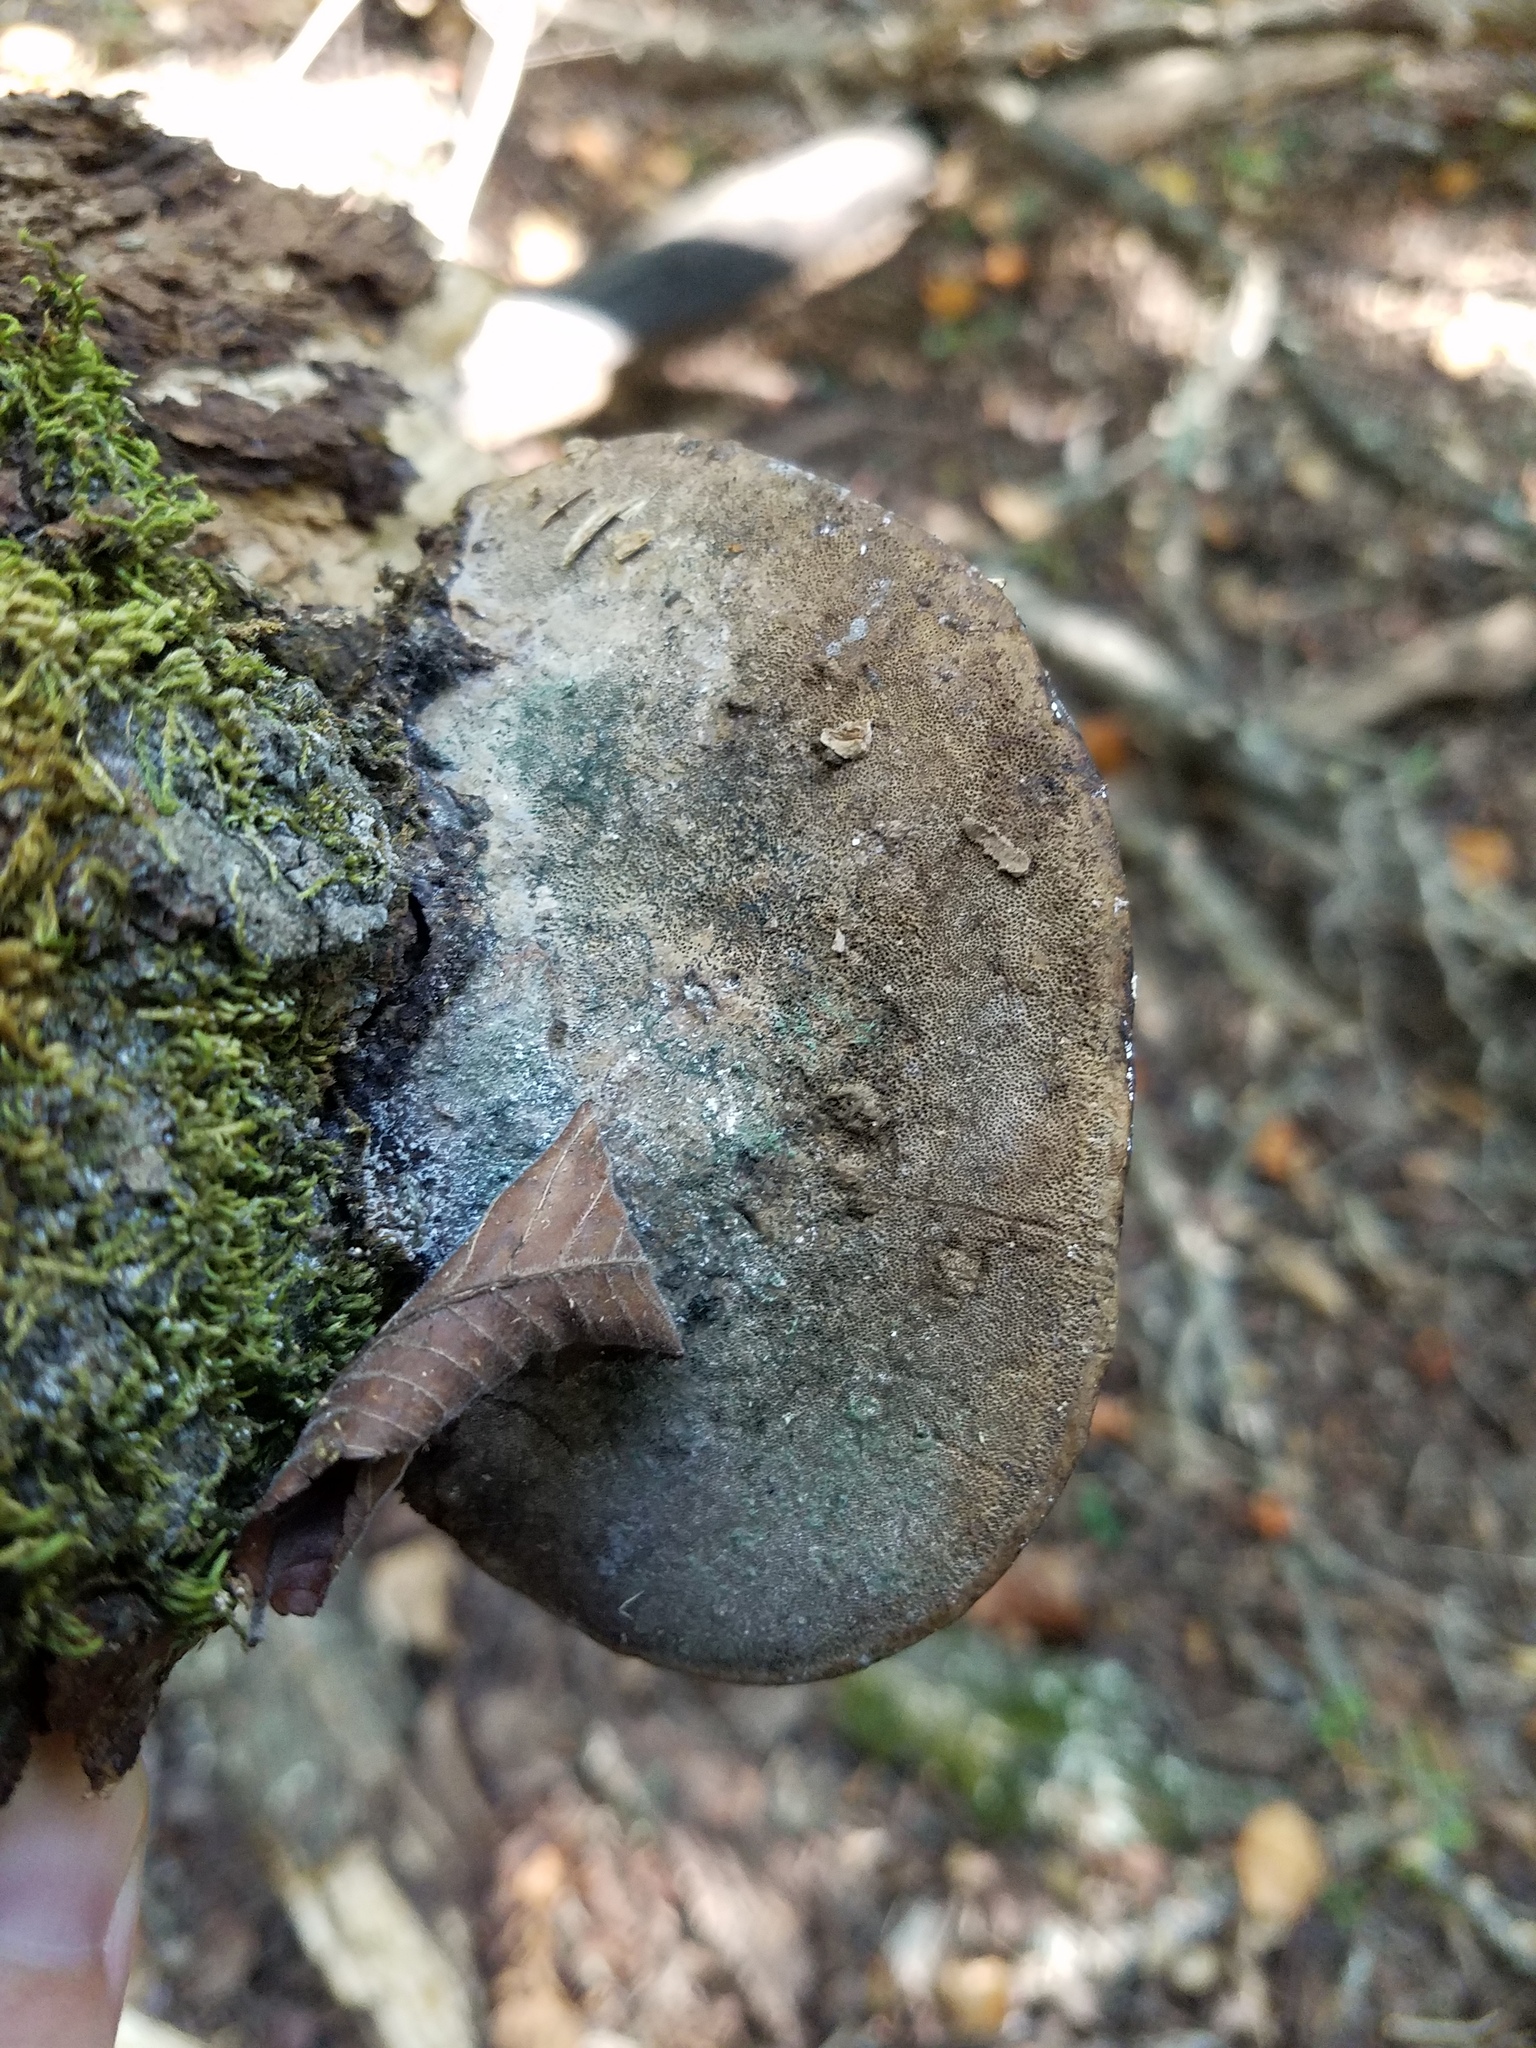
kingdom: Fungi
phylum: Basidiomycota
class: Agaricomycetes
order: Polyporales
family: Polyporaceae
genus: Fomes
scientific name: Fomes fasciatus
